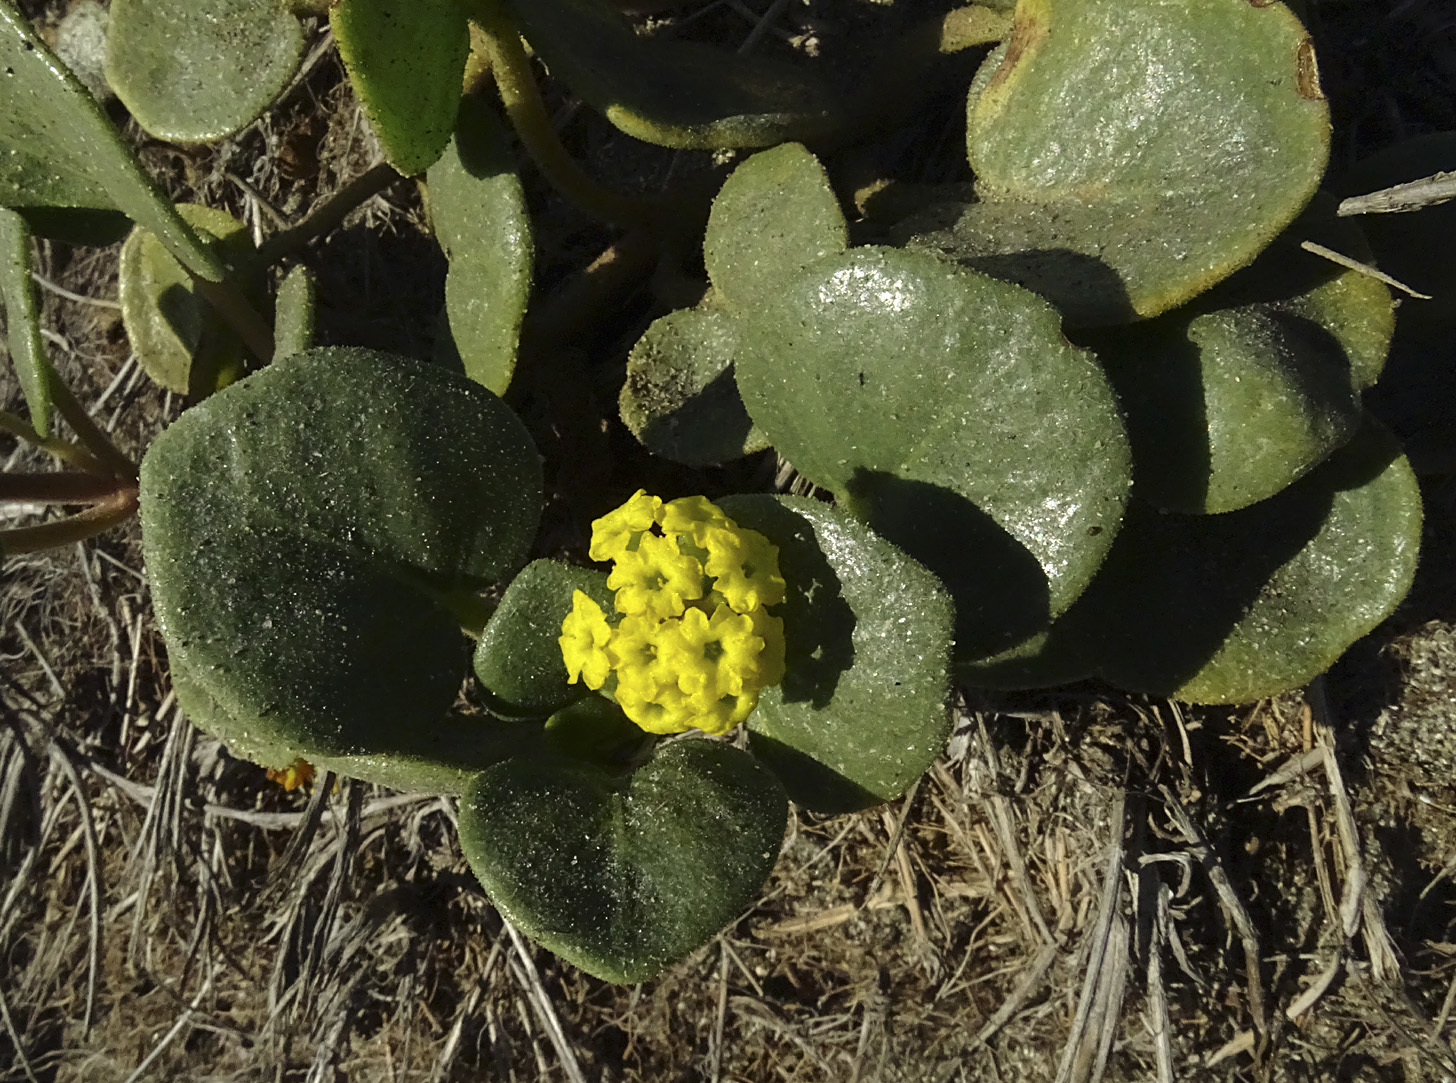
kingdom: Plantae
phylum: Tracheophyta
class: Magnoliopsida
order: Caryophyllales
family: Nyctaginaceae
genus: Abronia
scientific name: Abronia latifolia
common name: Yellow sand-verbena
